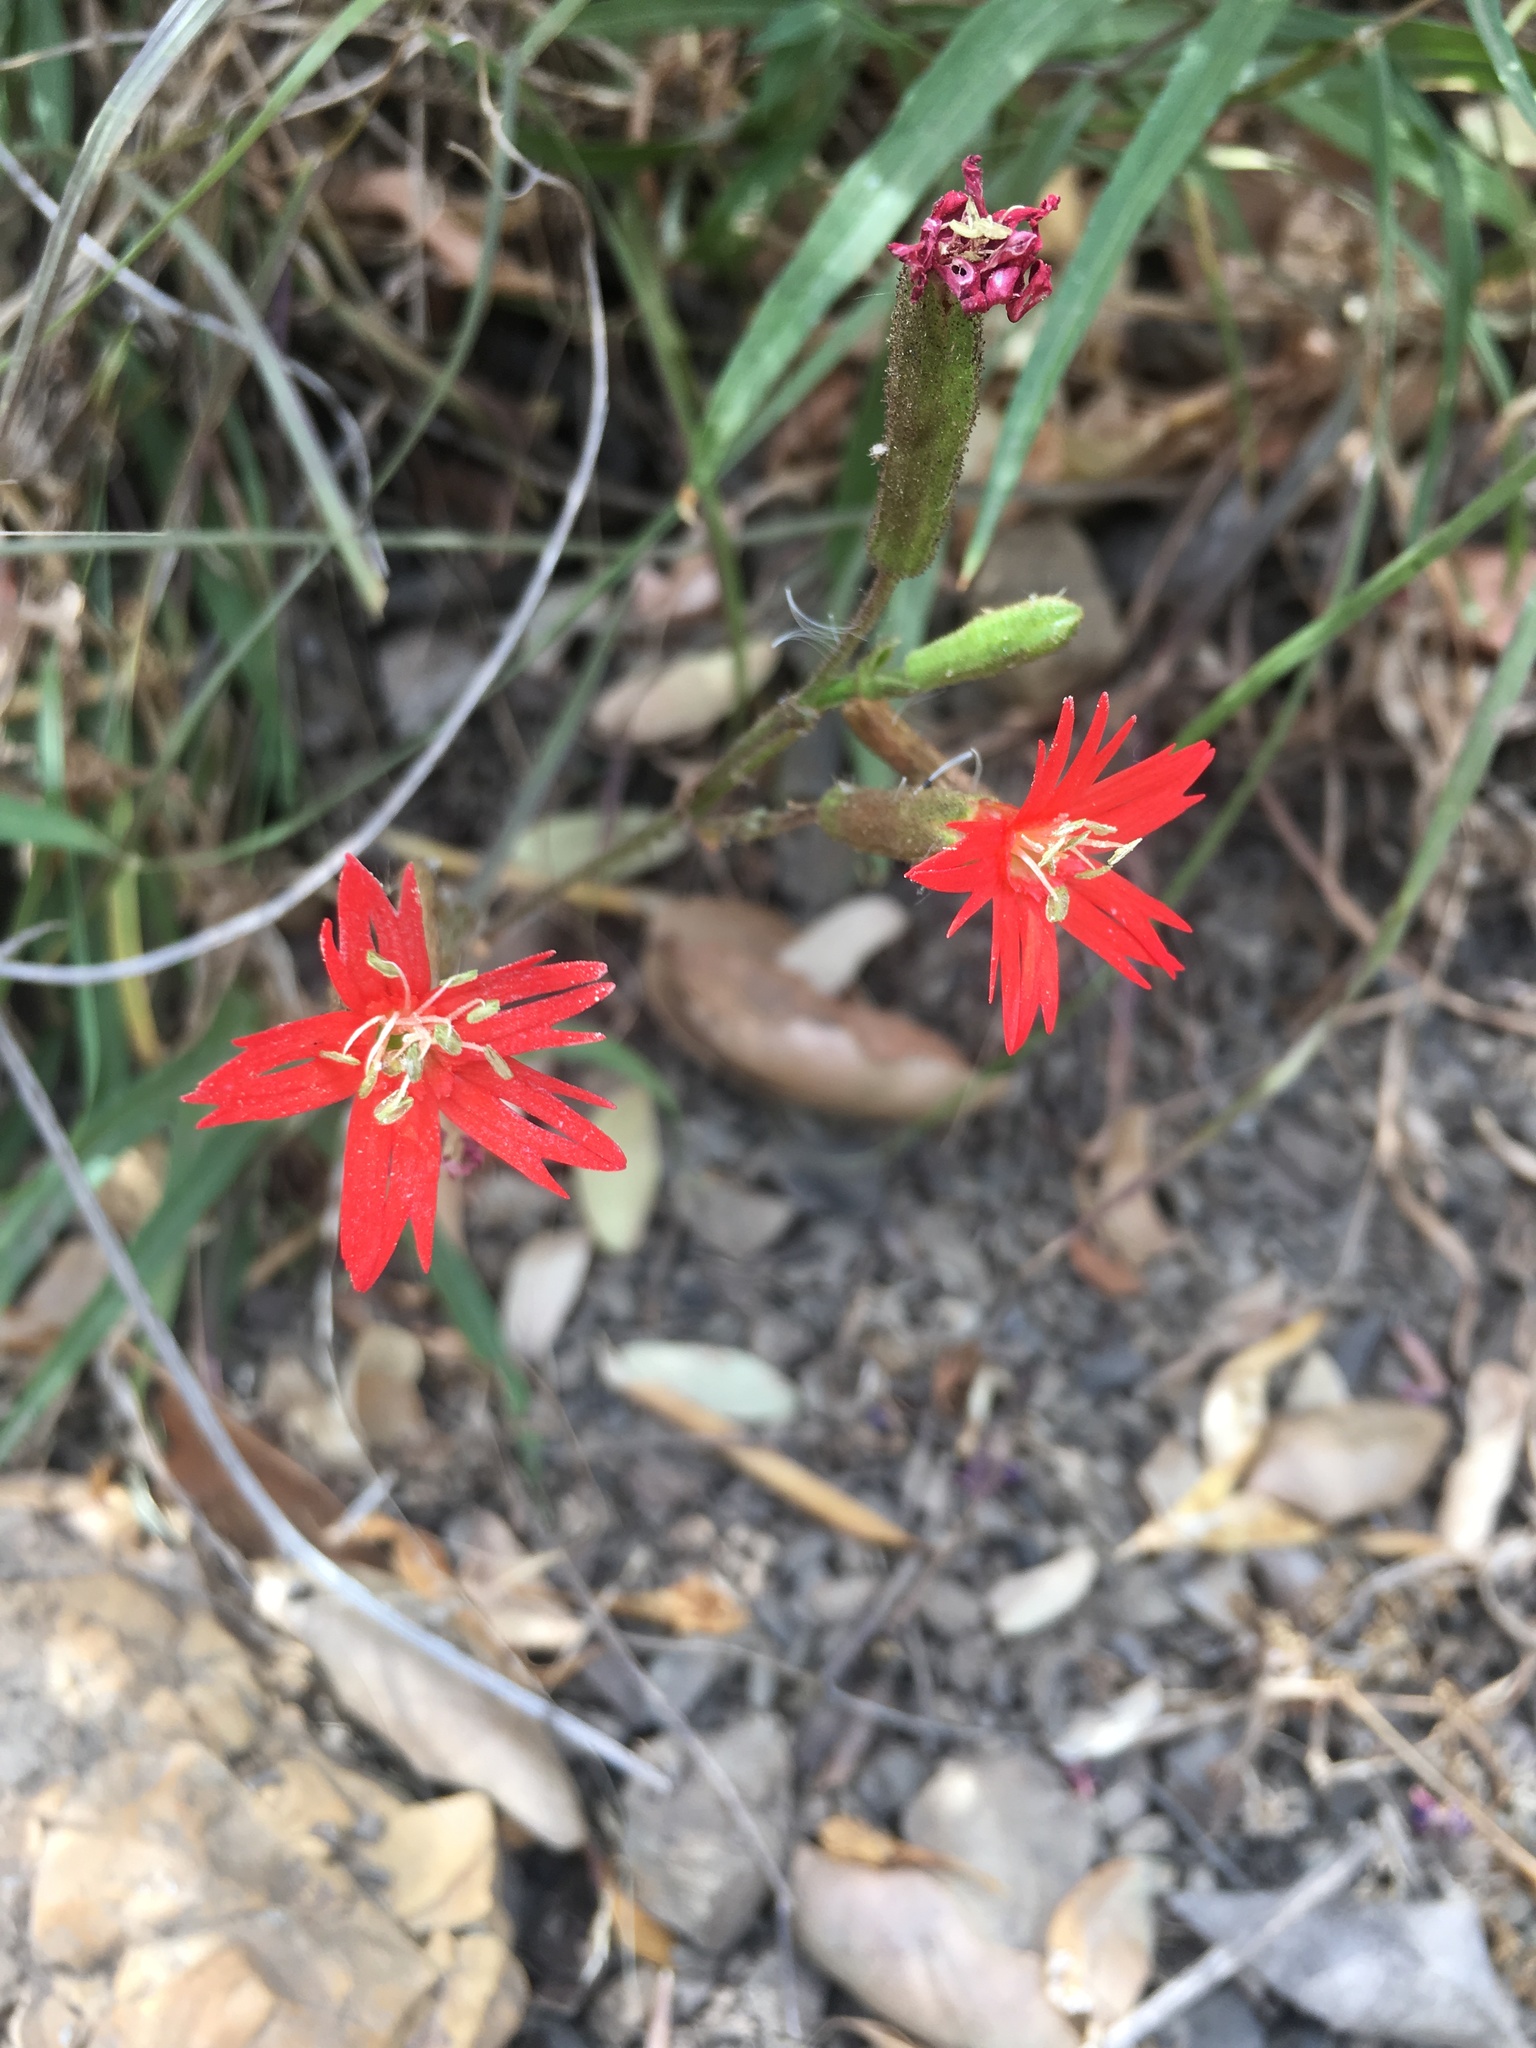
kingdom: Plantae
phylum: Tracheophyta
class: Magnoliopsida
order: Caryophyllales
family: Caryophyllaceae
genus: Silene
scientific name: Silene laciniata
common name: Indian-pink
